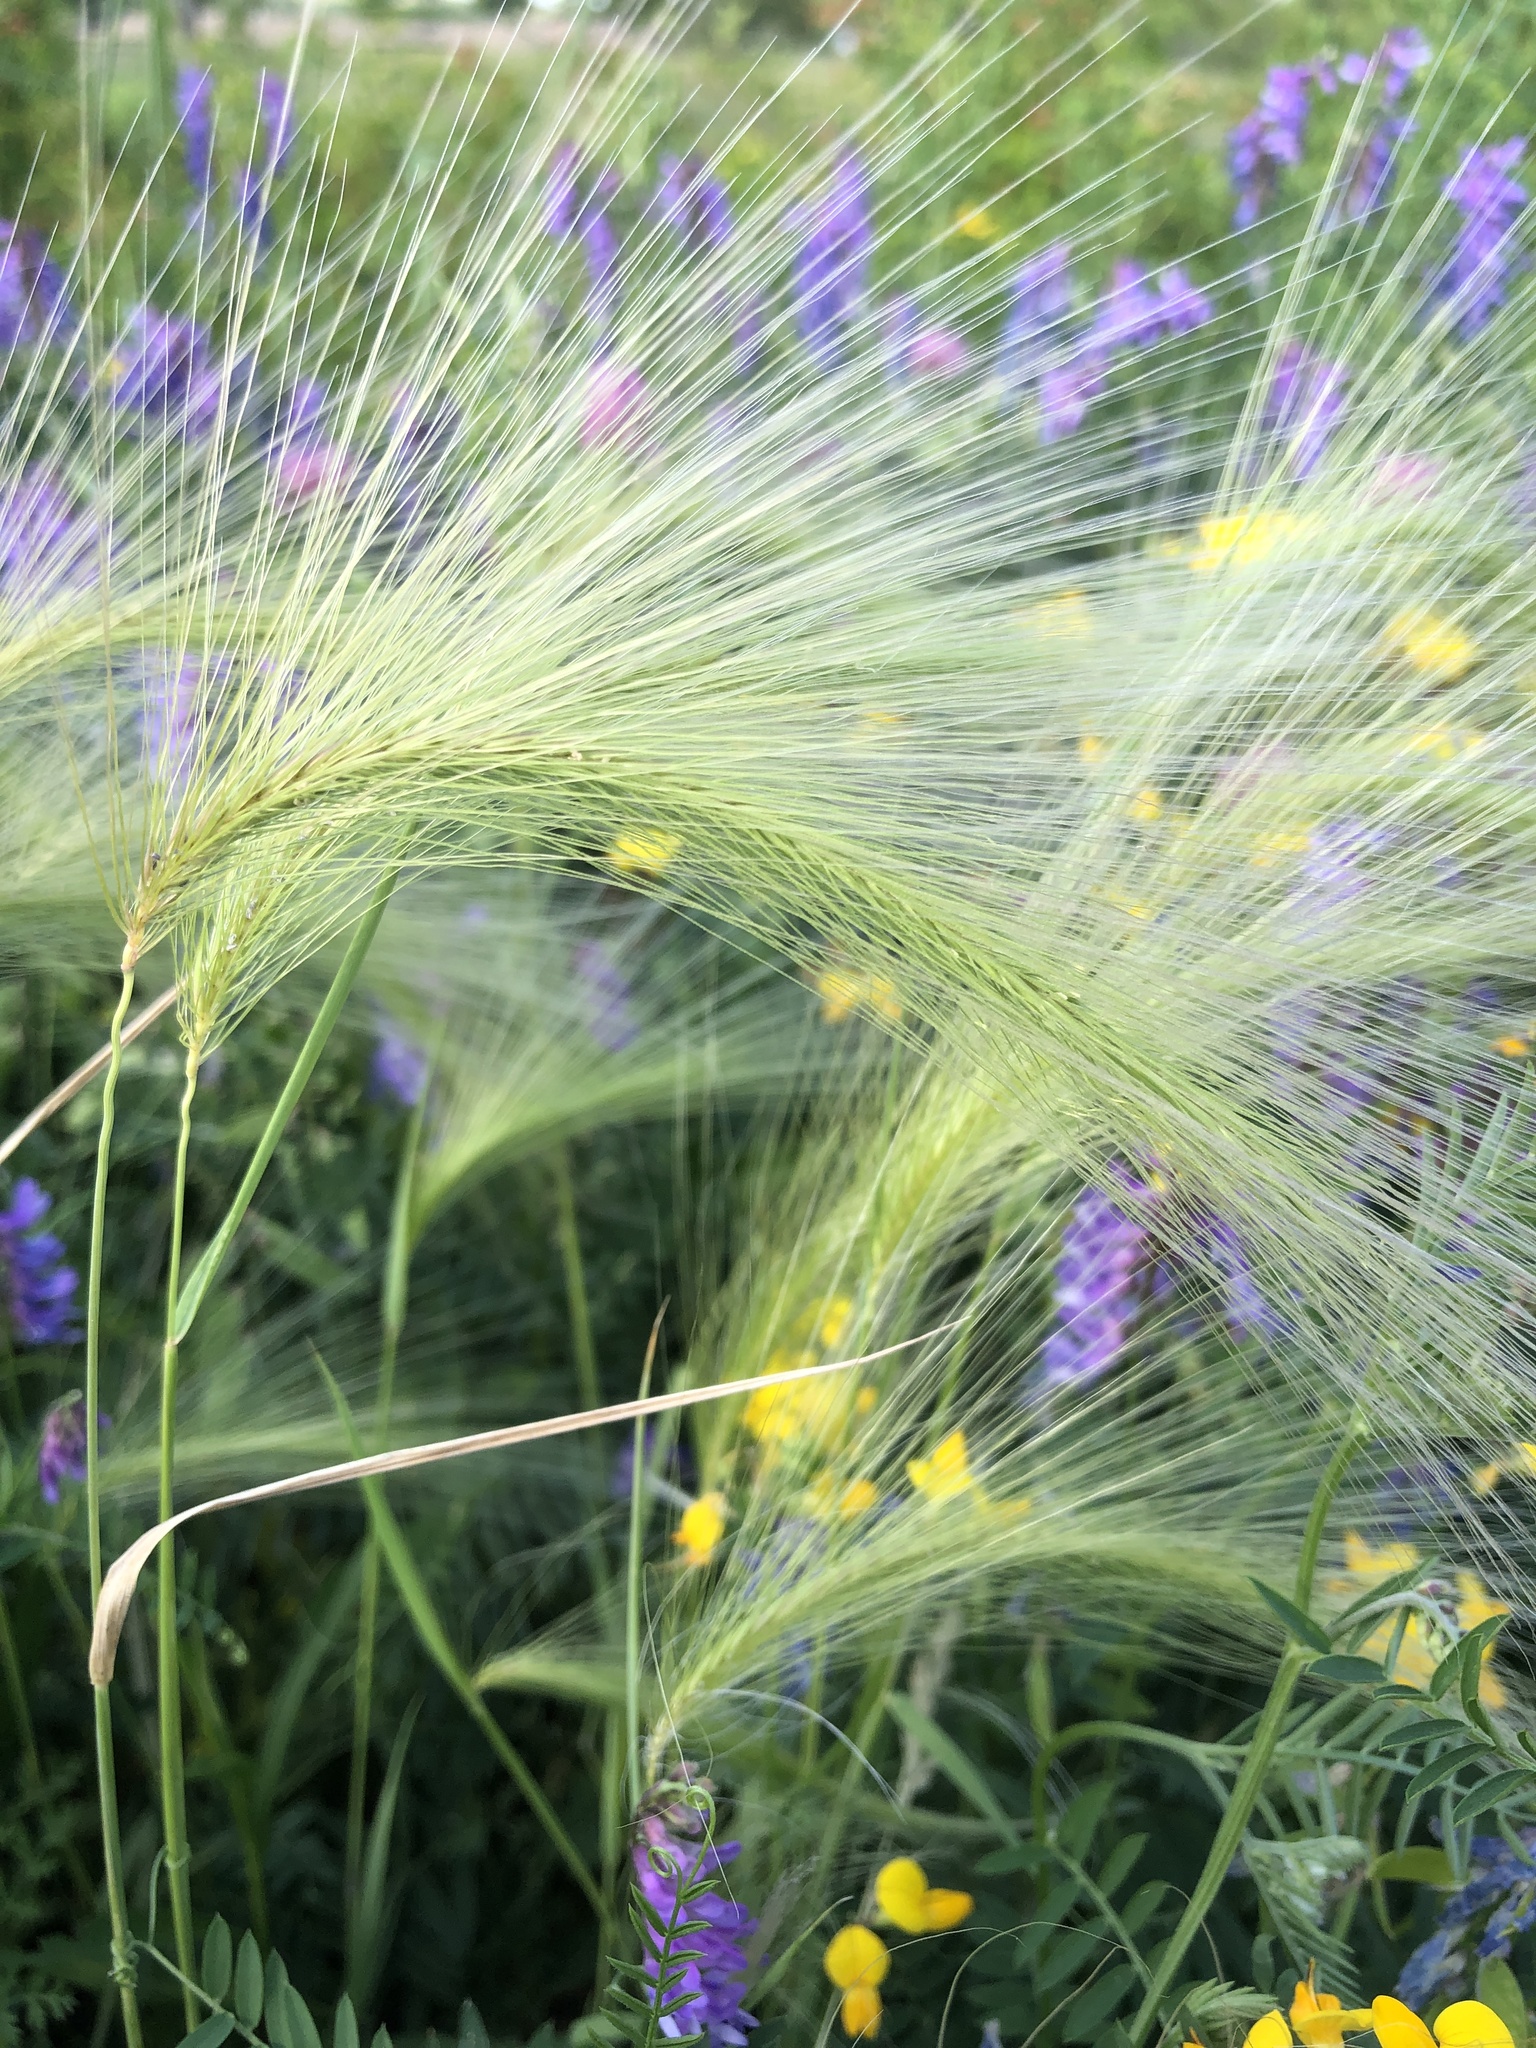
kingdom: Plantae
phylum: Tracheophyta
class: Liliopsida
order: Poales
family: Poaceae
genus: Hordeum
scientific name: Hordeum jubatum
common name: Foxtail barley
